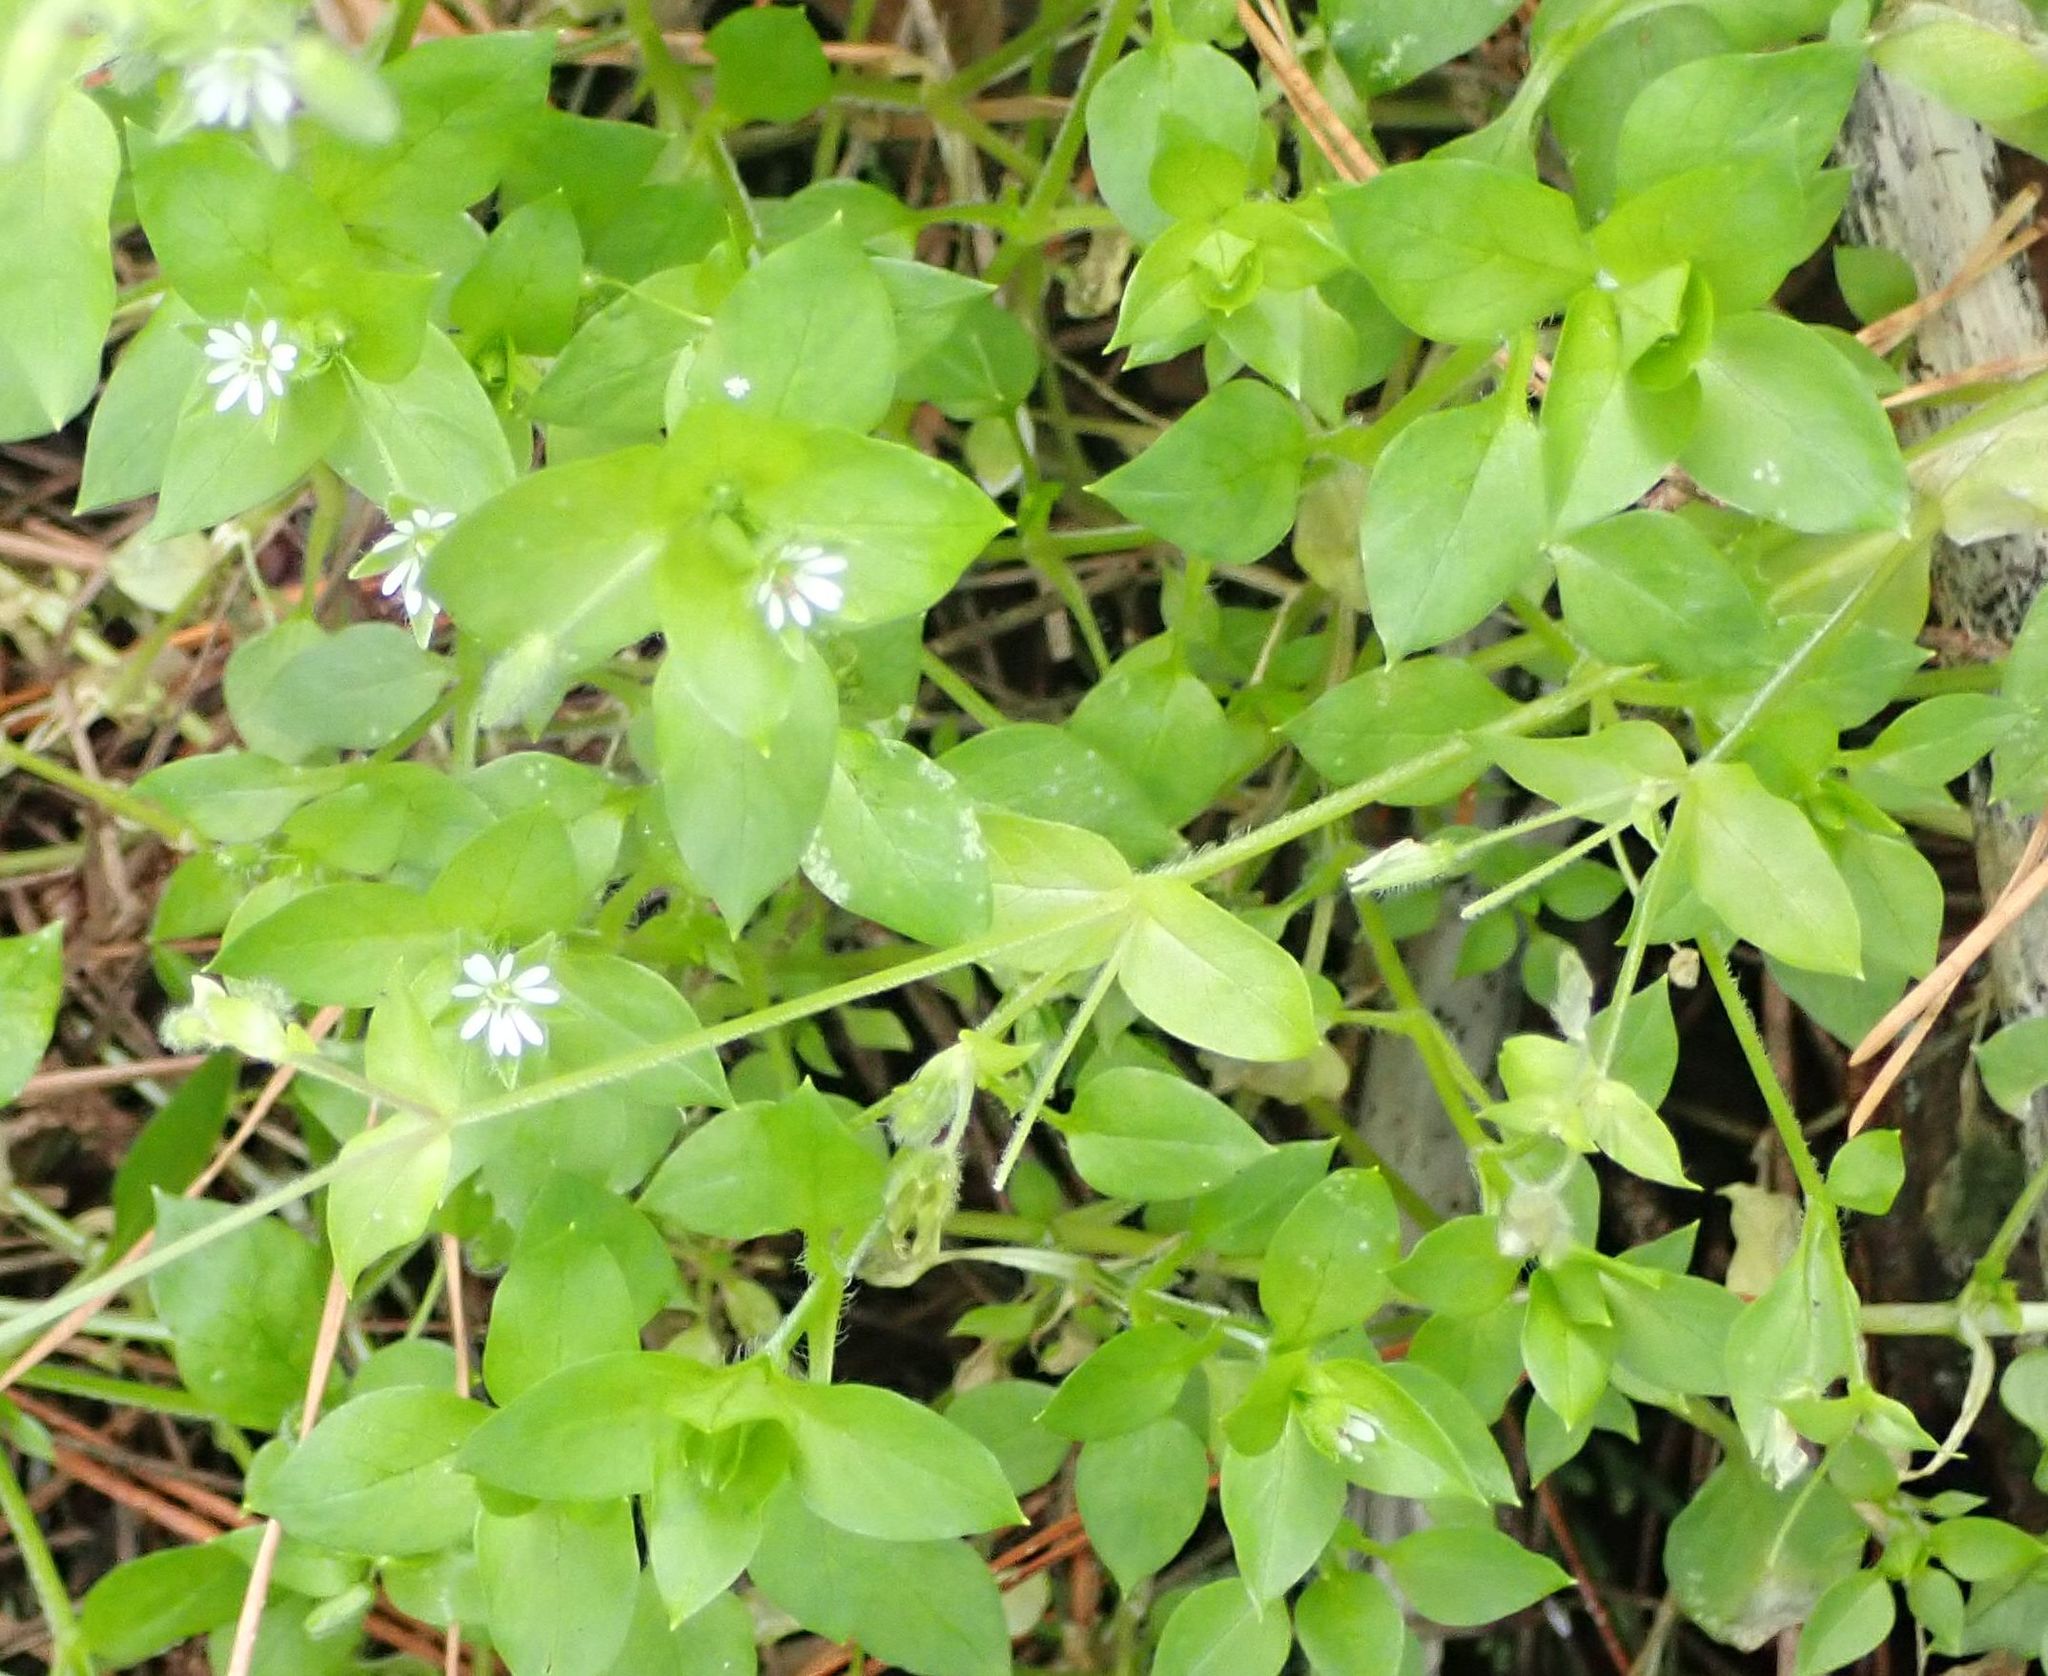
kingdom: Plantae
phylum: Tracheophyta
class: Magnoliopsida
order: Caryophyllales
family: Caryophyllaceae
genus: Stellaria
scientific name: Stellaria media
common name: Common chickweed
